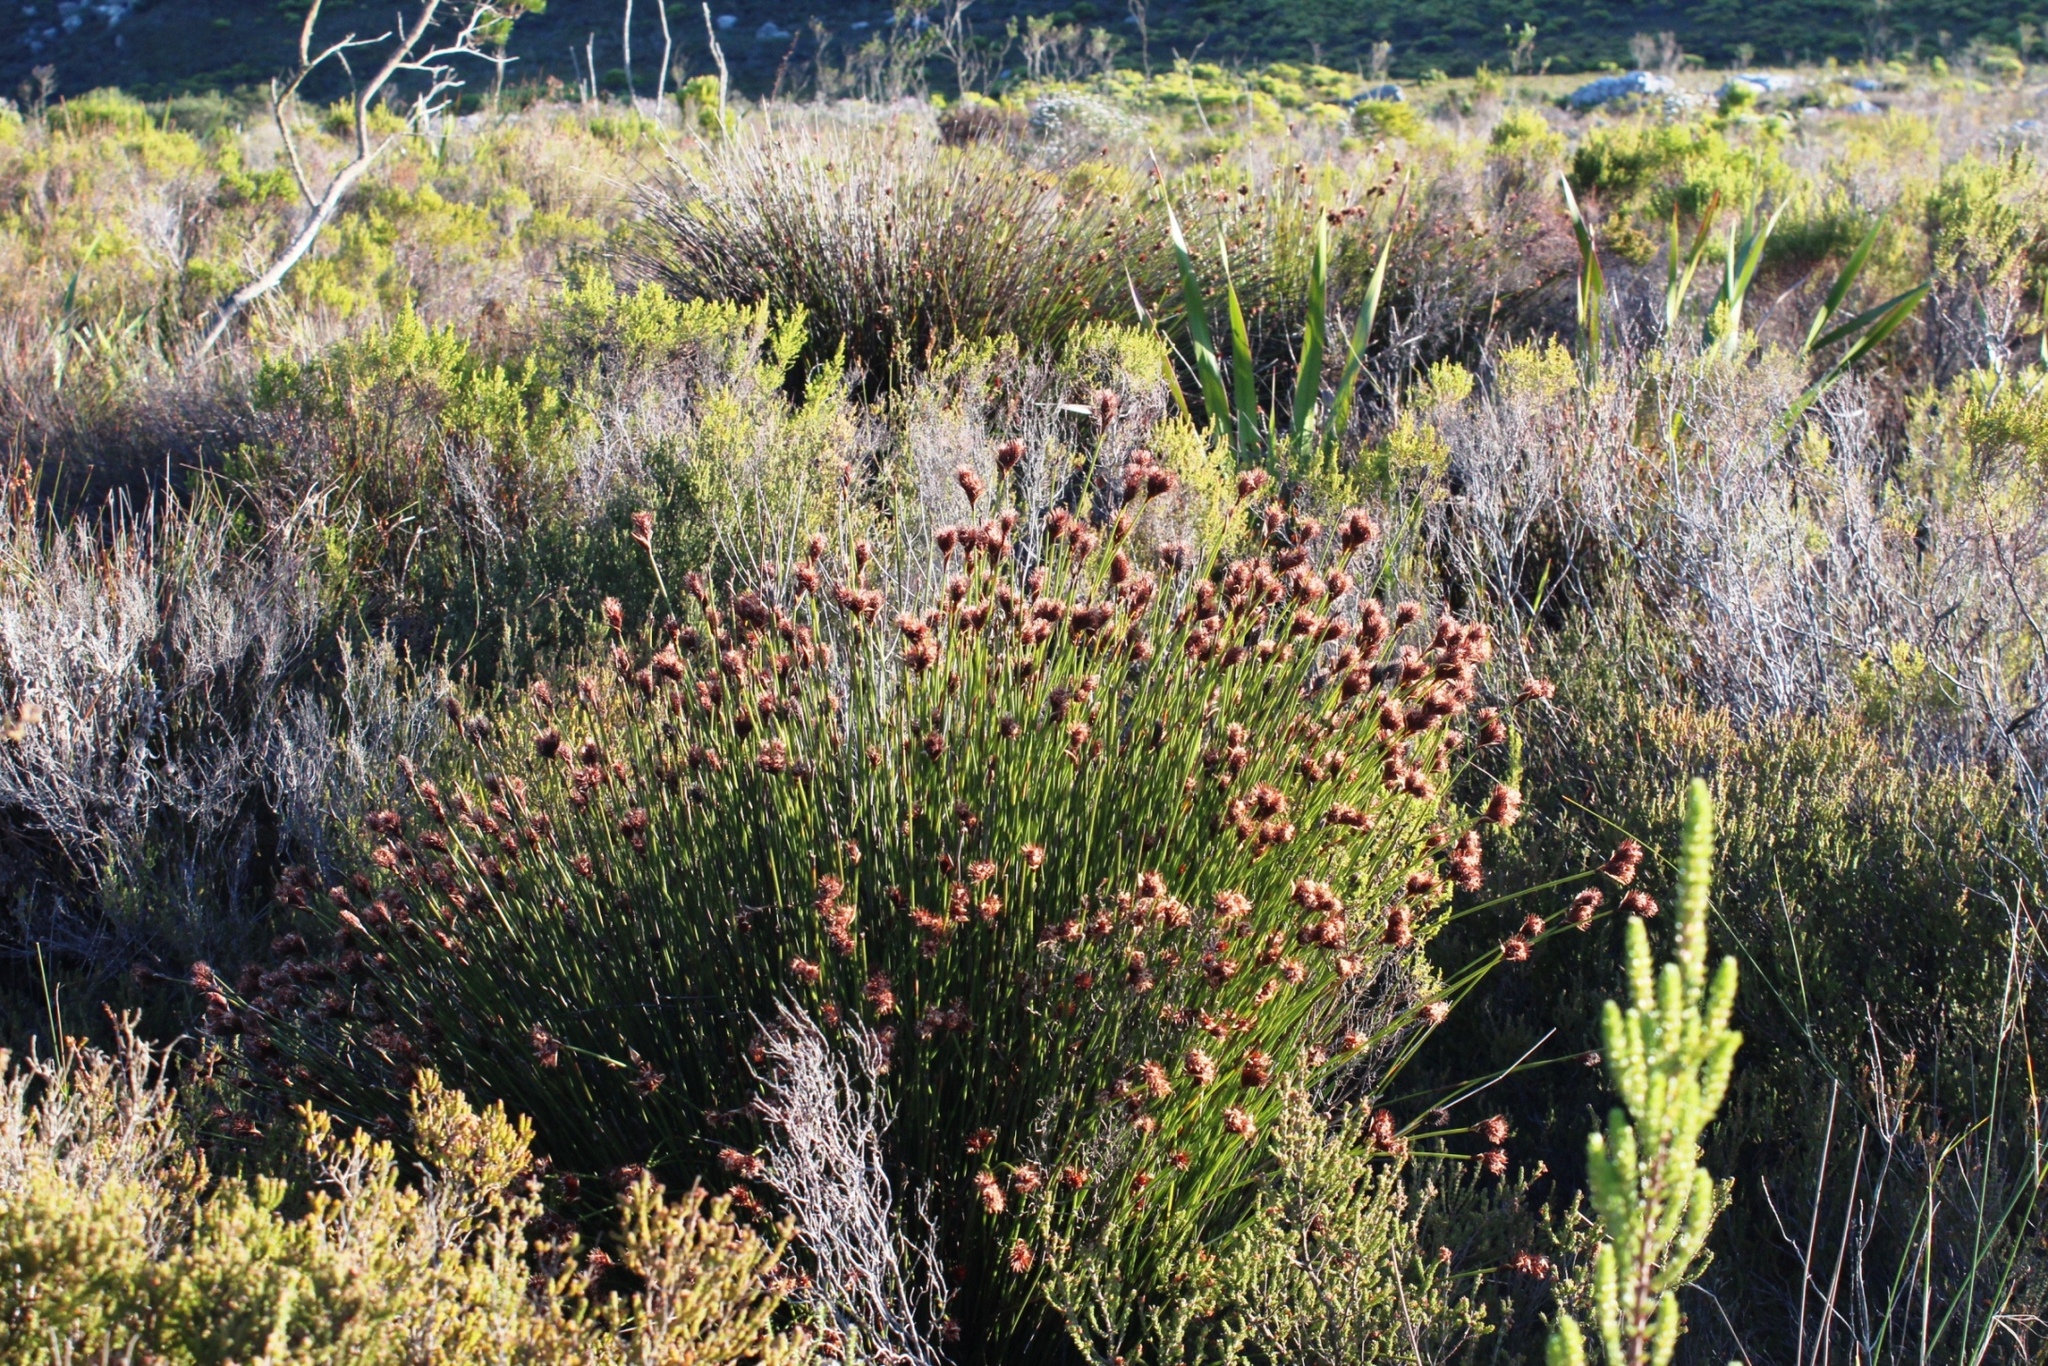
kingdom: Plantae
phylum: Tracheophyta
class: Liliopsida
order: Poales
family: Restionaceae
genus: Hypodiscus
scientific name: Hypodiscus aristatus
